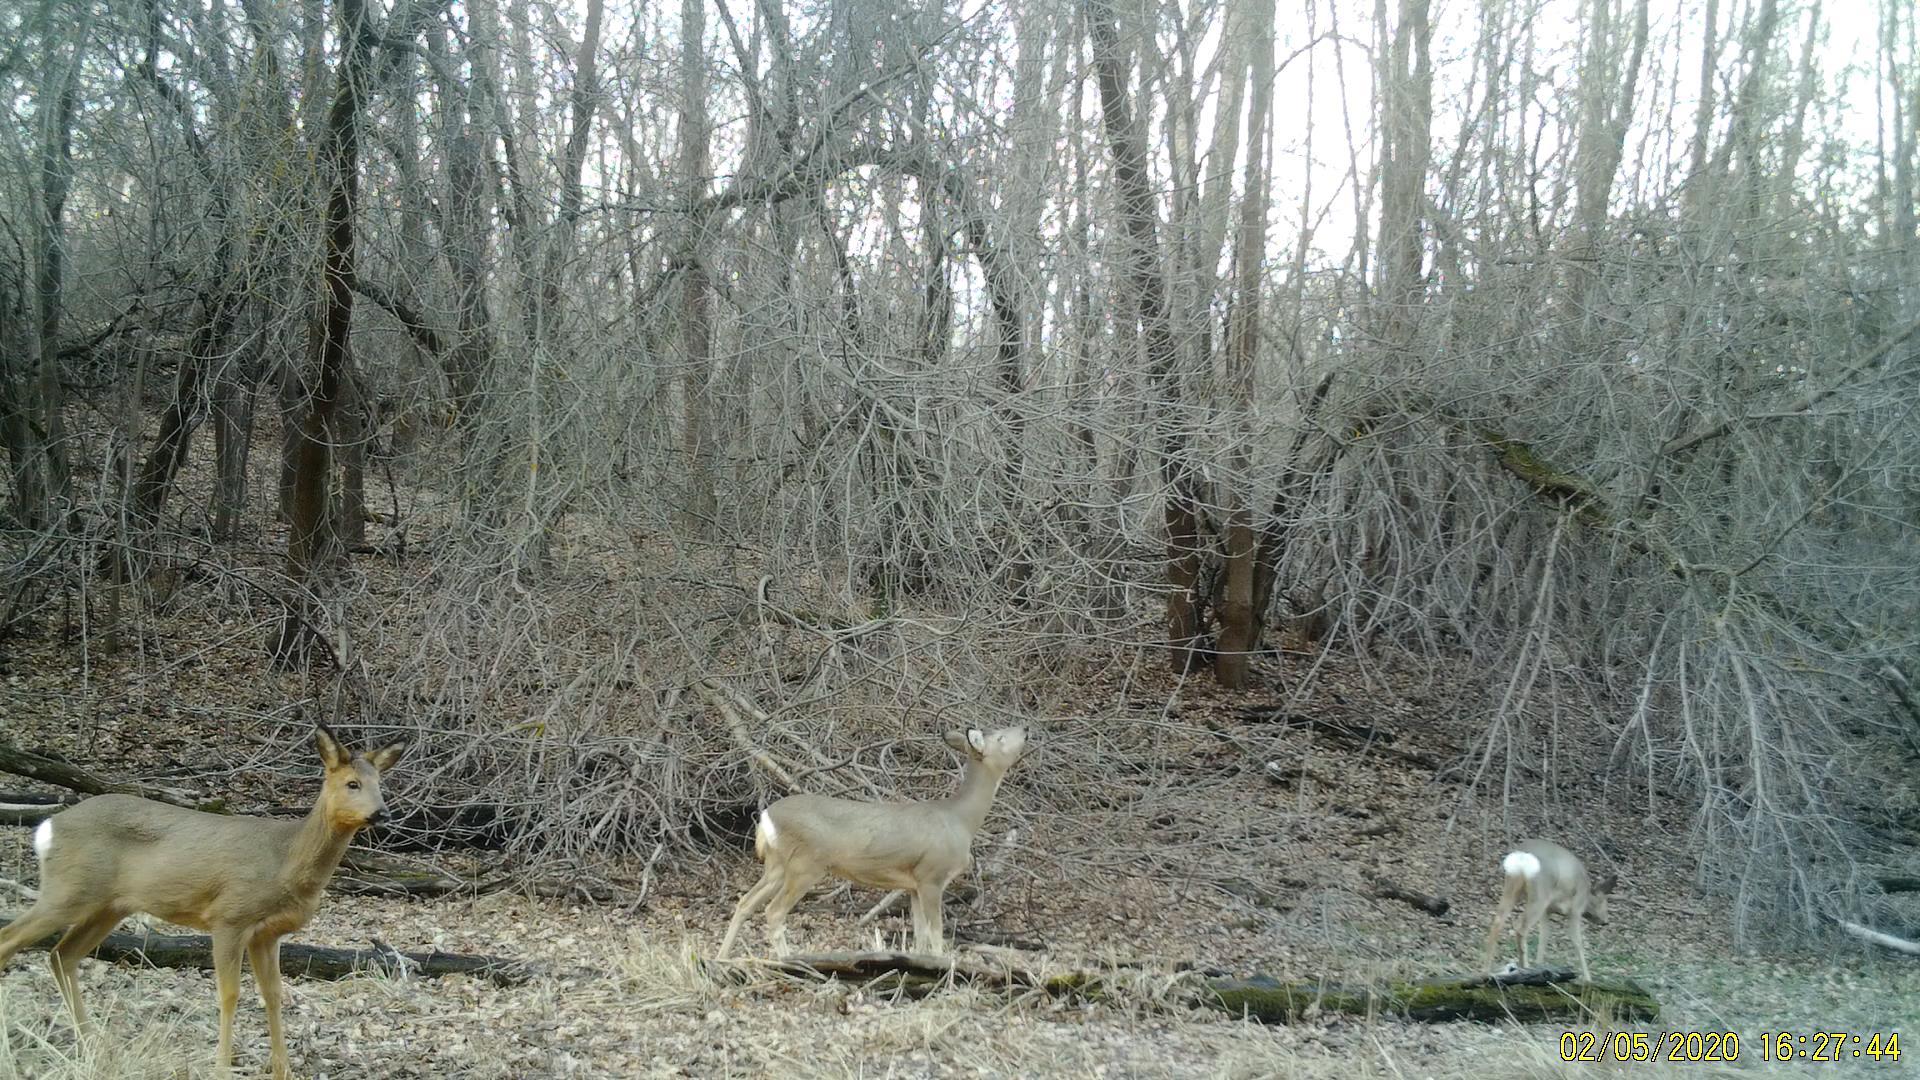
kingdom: Animalia
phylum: Chordata
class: Mammalia
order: Artiodactyla
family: Cervidae
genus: Capreolus
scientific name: Capreolus pygargus
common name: Siberian roe
